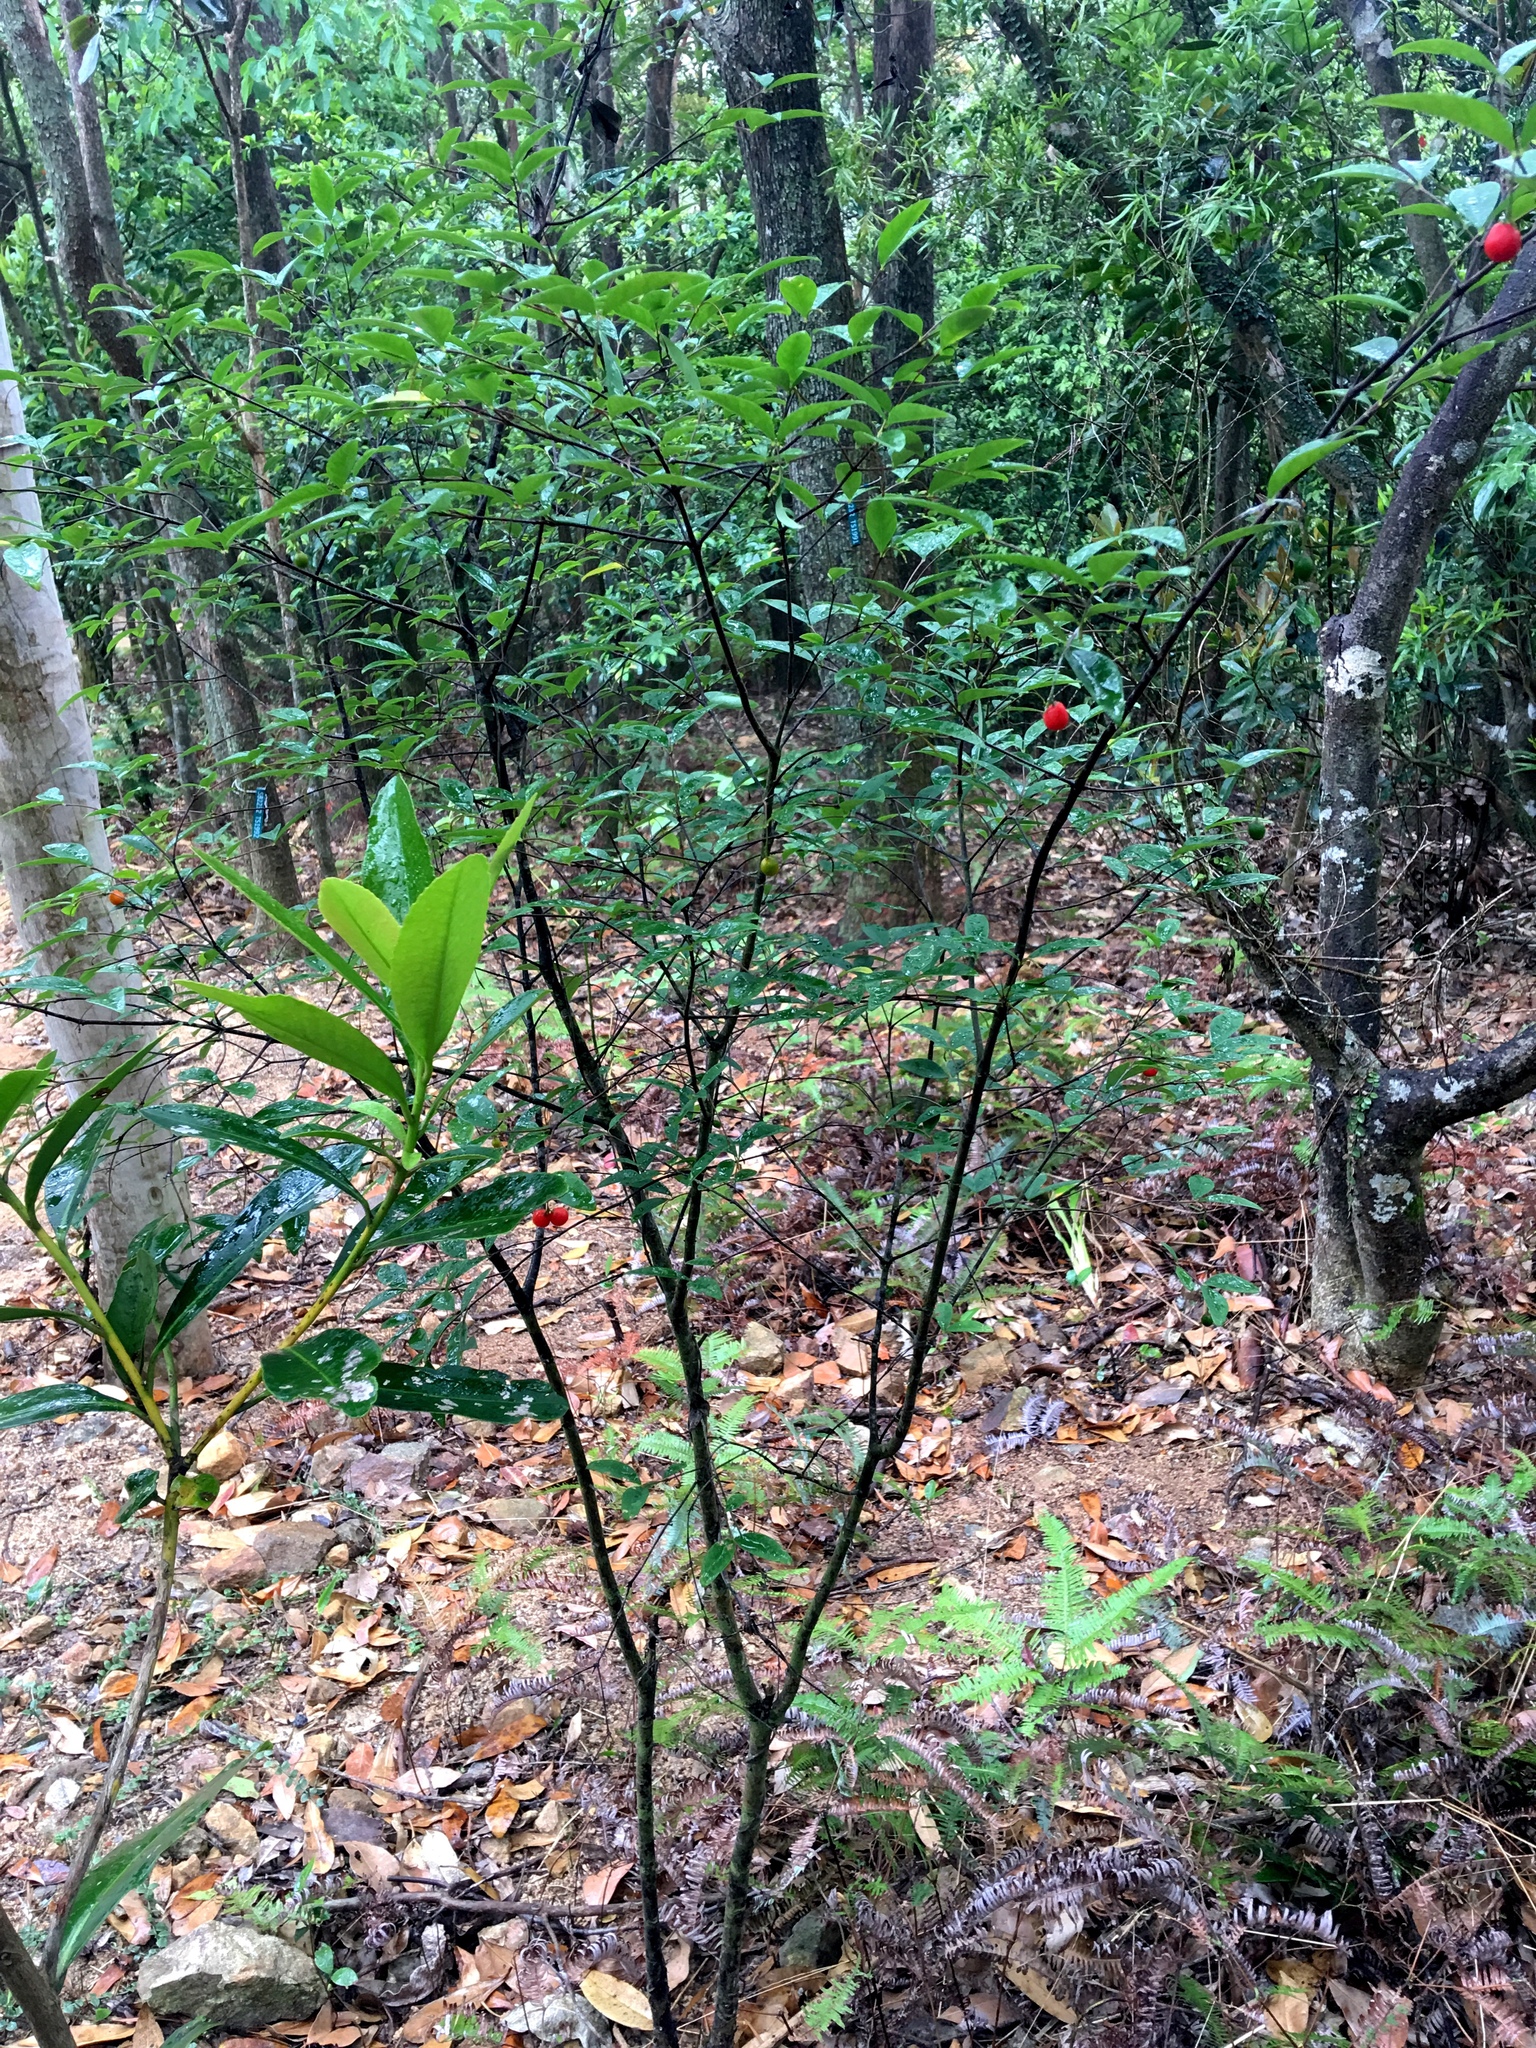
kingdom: Plantae
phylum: Tracheophyta
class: Magnoliopsida
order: Malvales
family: Thymelaeaceae
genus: Wikstroemia
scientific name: Wikstroemia nutans
